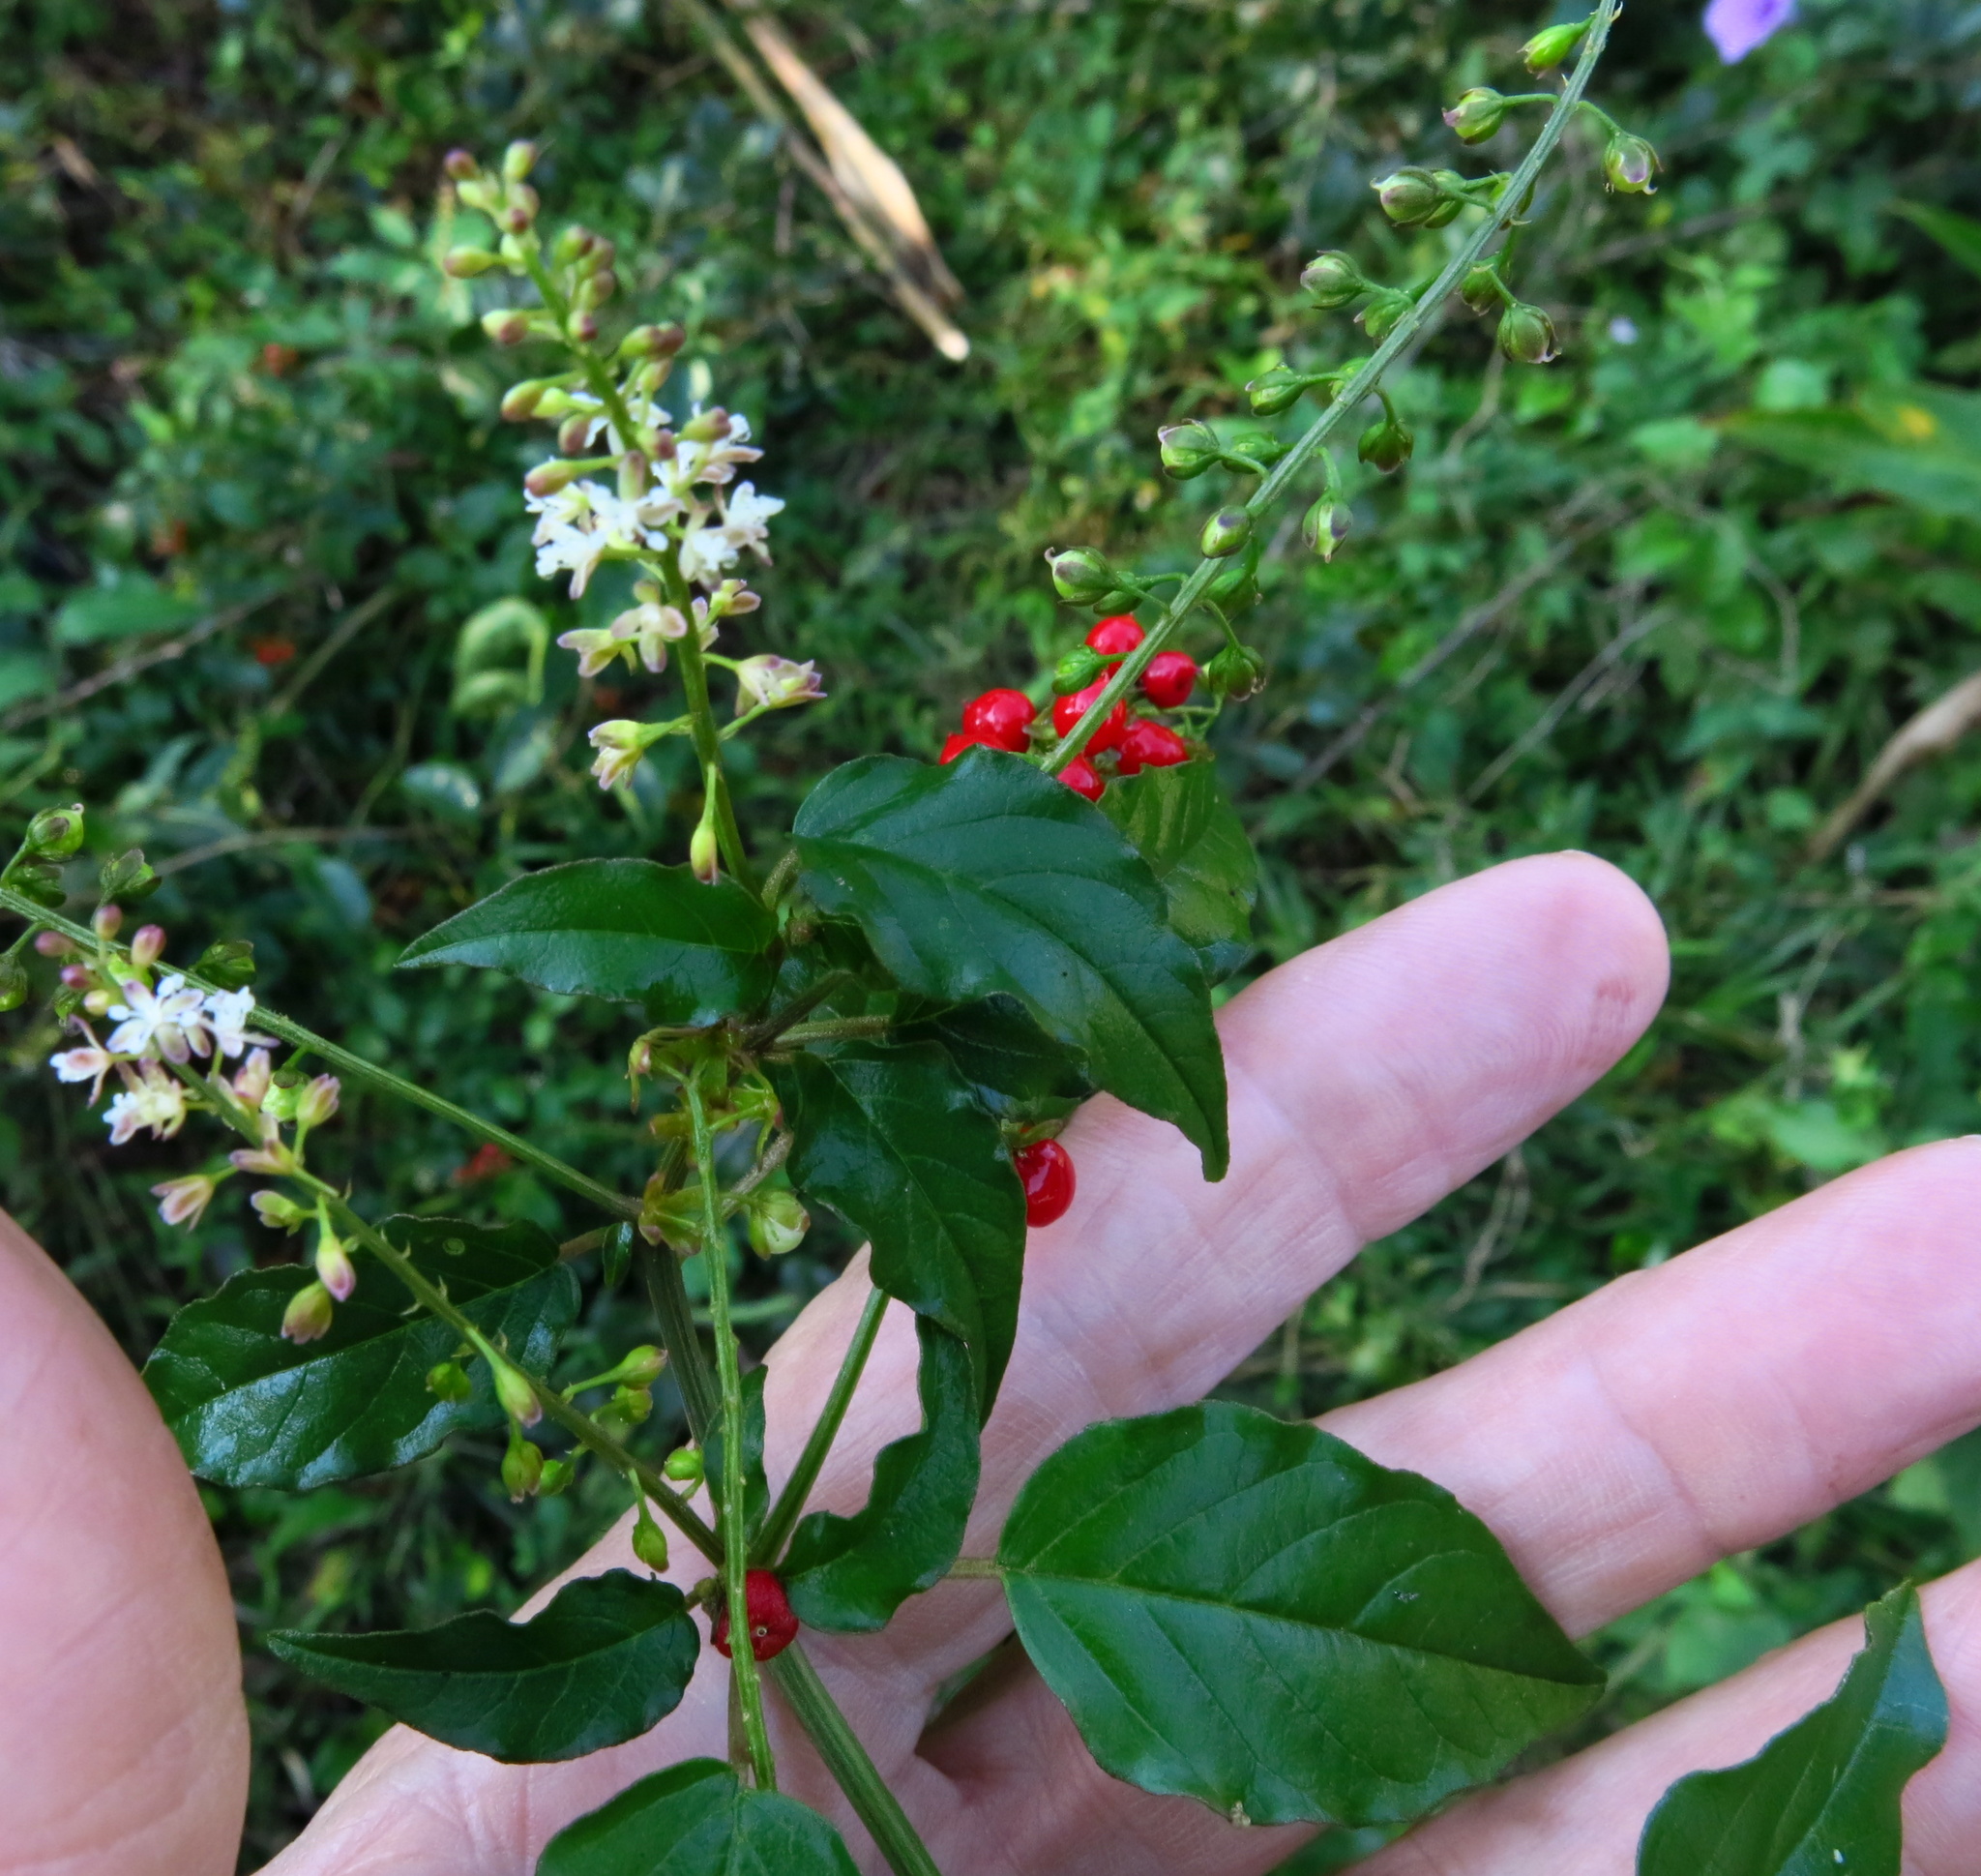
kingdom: Plantae
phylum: Tracheophyta
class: Magnoliopsida
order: Caryophyllales
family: Phytolaccaceae
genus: Rivina
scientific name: Rivina humilis
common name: Rougeplant
